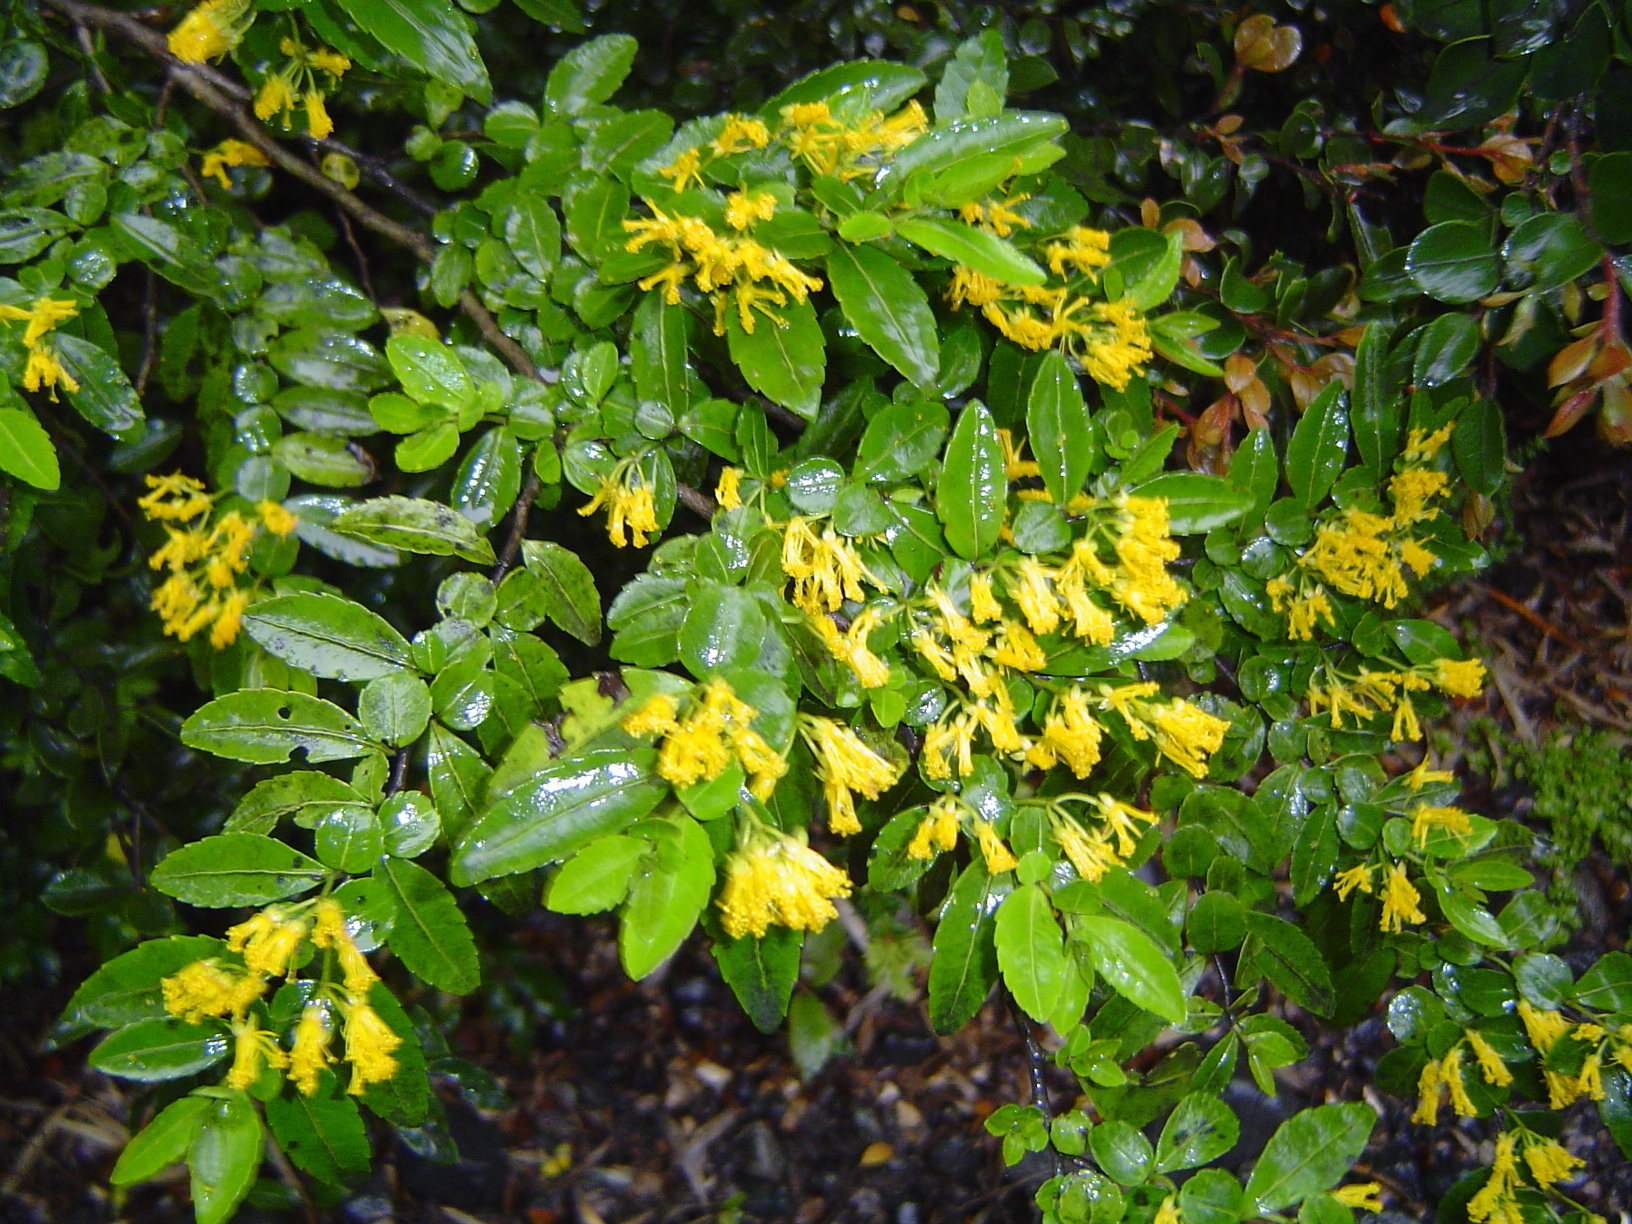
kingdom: Plantae
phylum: Tracheophyta
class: Magnoliopsida
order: Malpighiales
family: Salicaceae
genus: Azara
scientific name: Azara lanceolata
